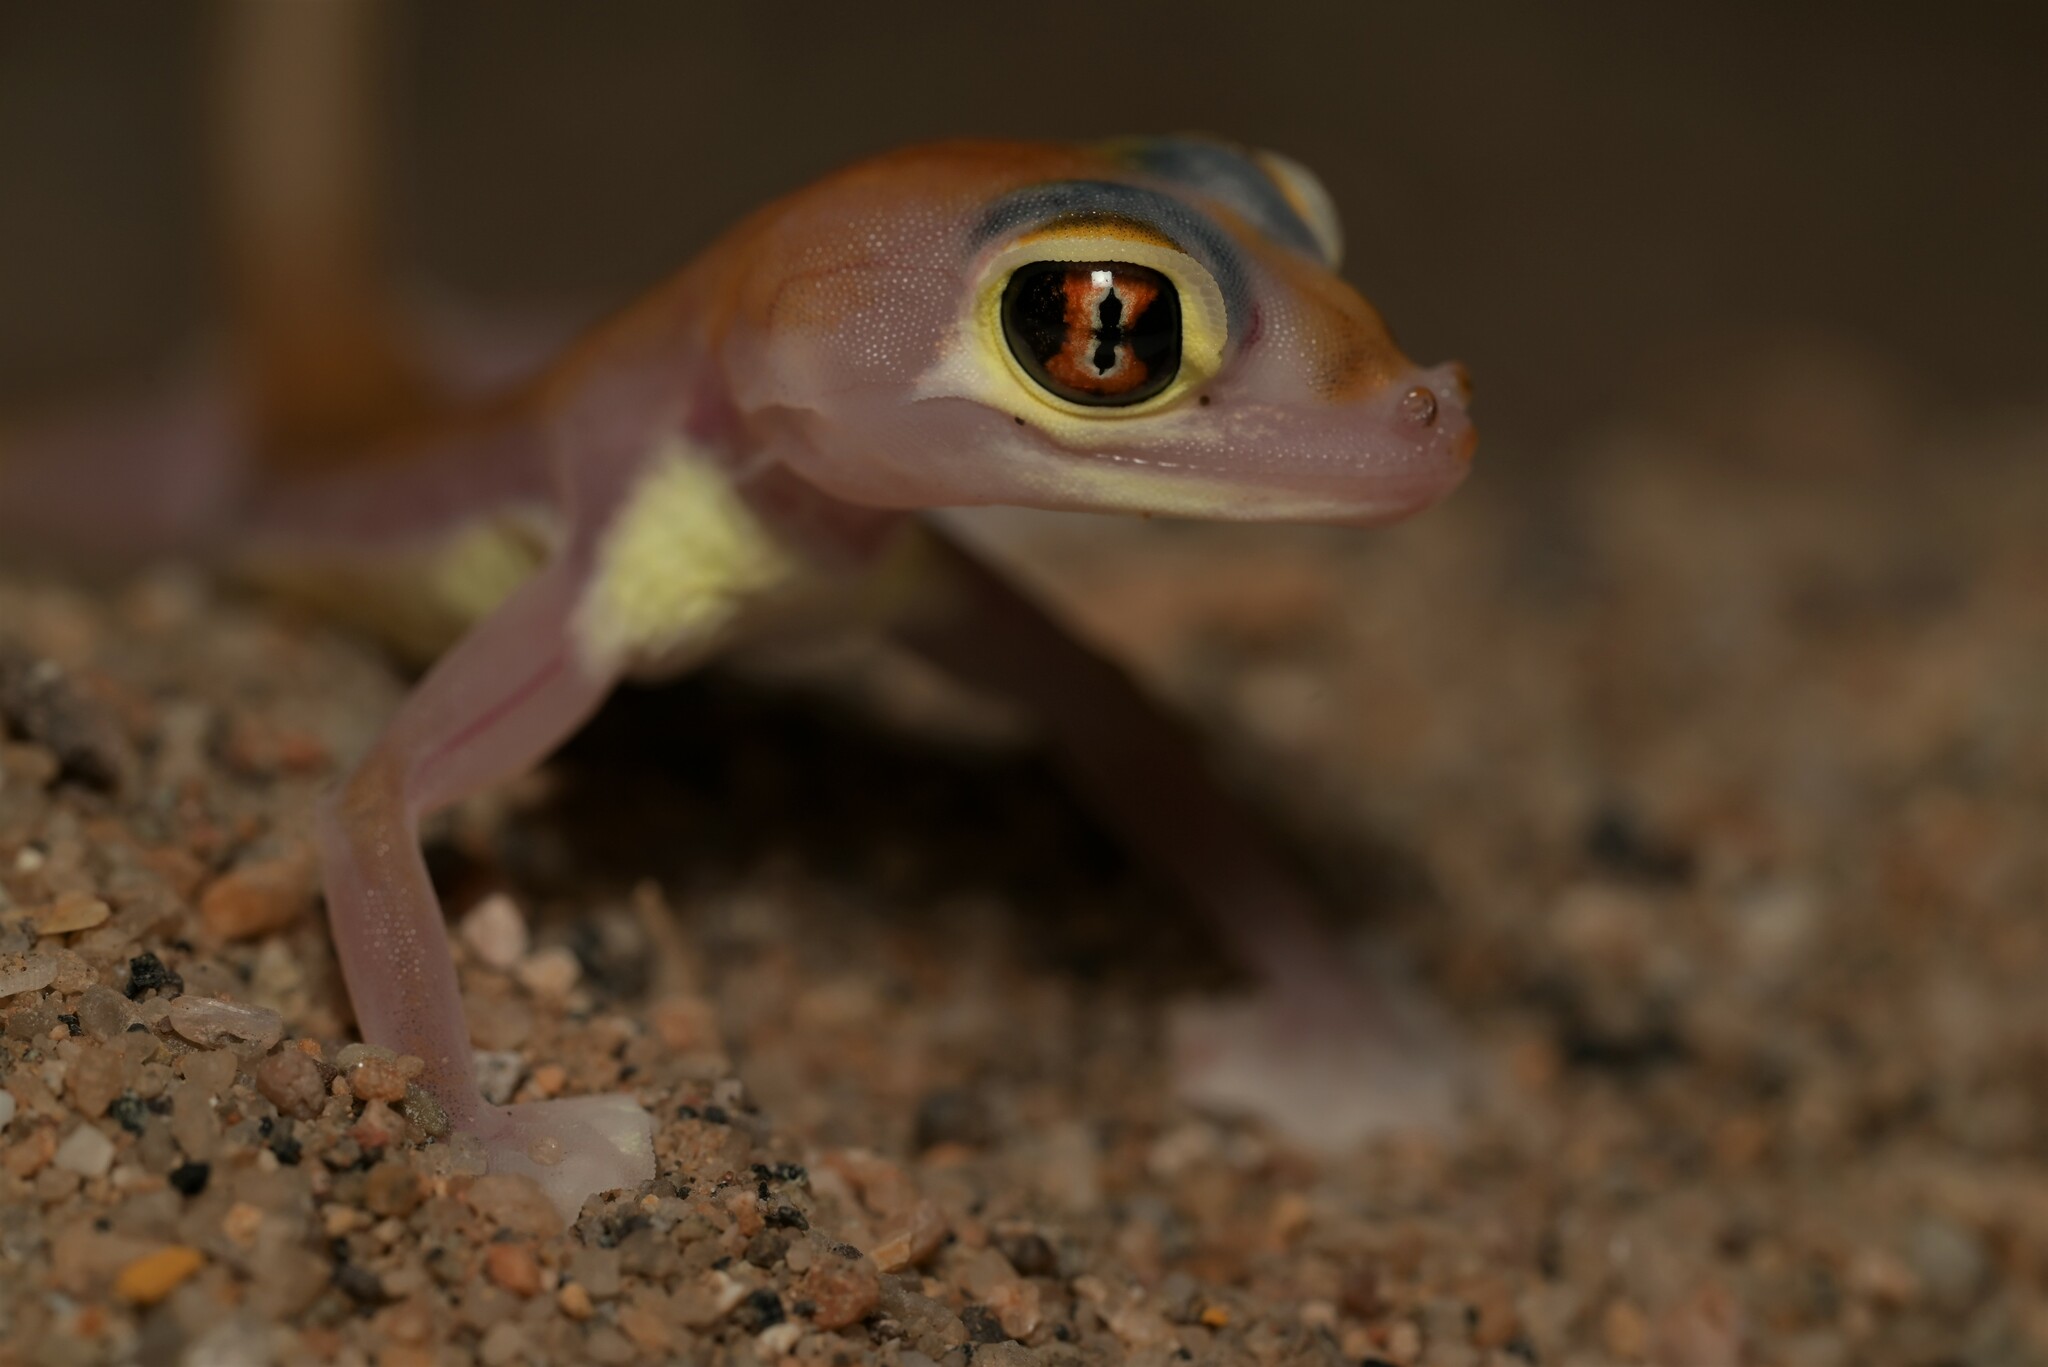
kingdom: Animalia
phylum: Chordata
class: Squamata
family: Gekkonidae
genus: Pachydactylus
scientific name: Pachydactylus rangei
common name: Namib sand gecko
